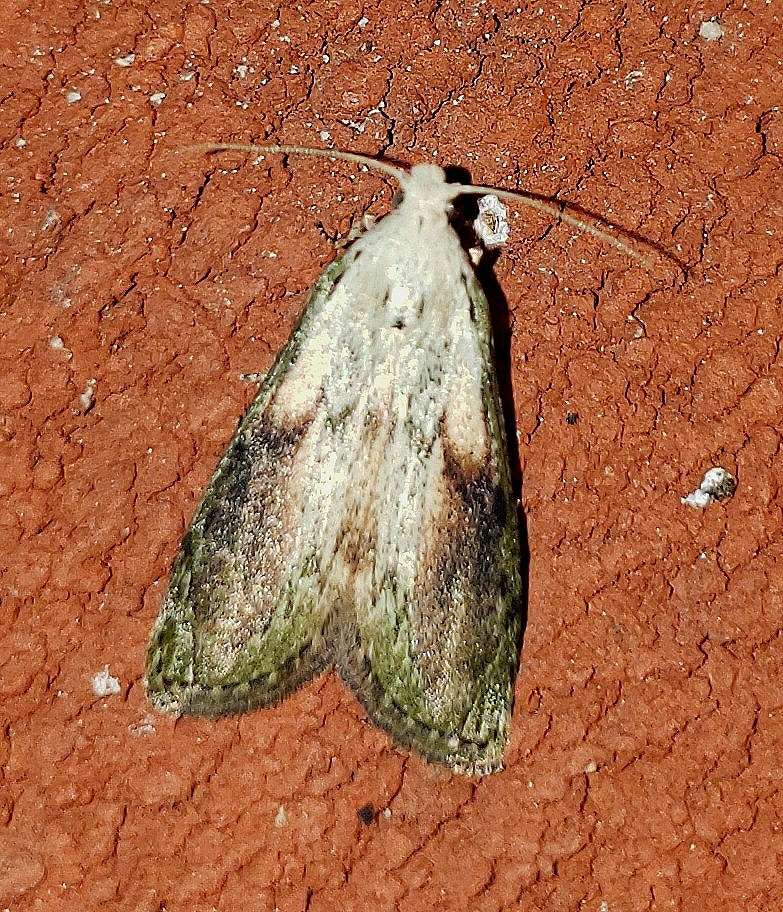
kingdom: Animalia
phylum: Arthropoda
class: Insecta
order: Lepidoptera
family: Pyralidae
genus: Aphomia
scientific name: Aphomia sociella
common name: Bee moth
